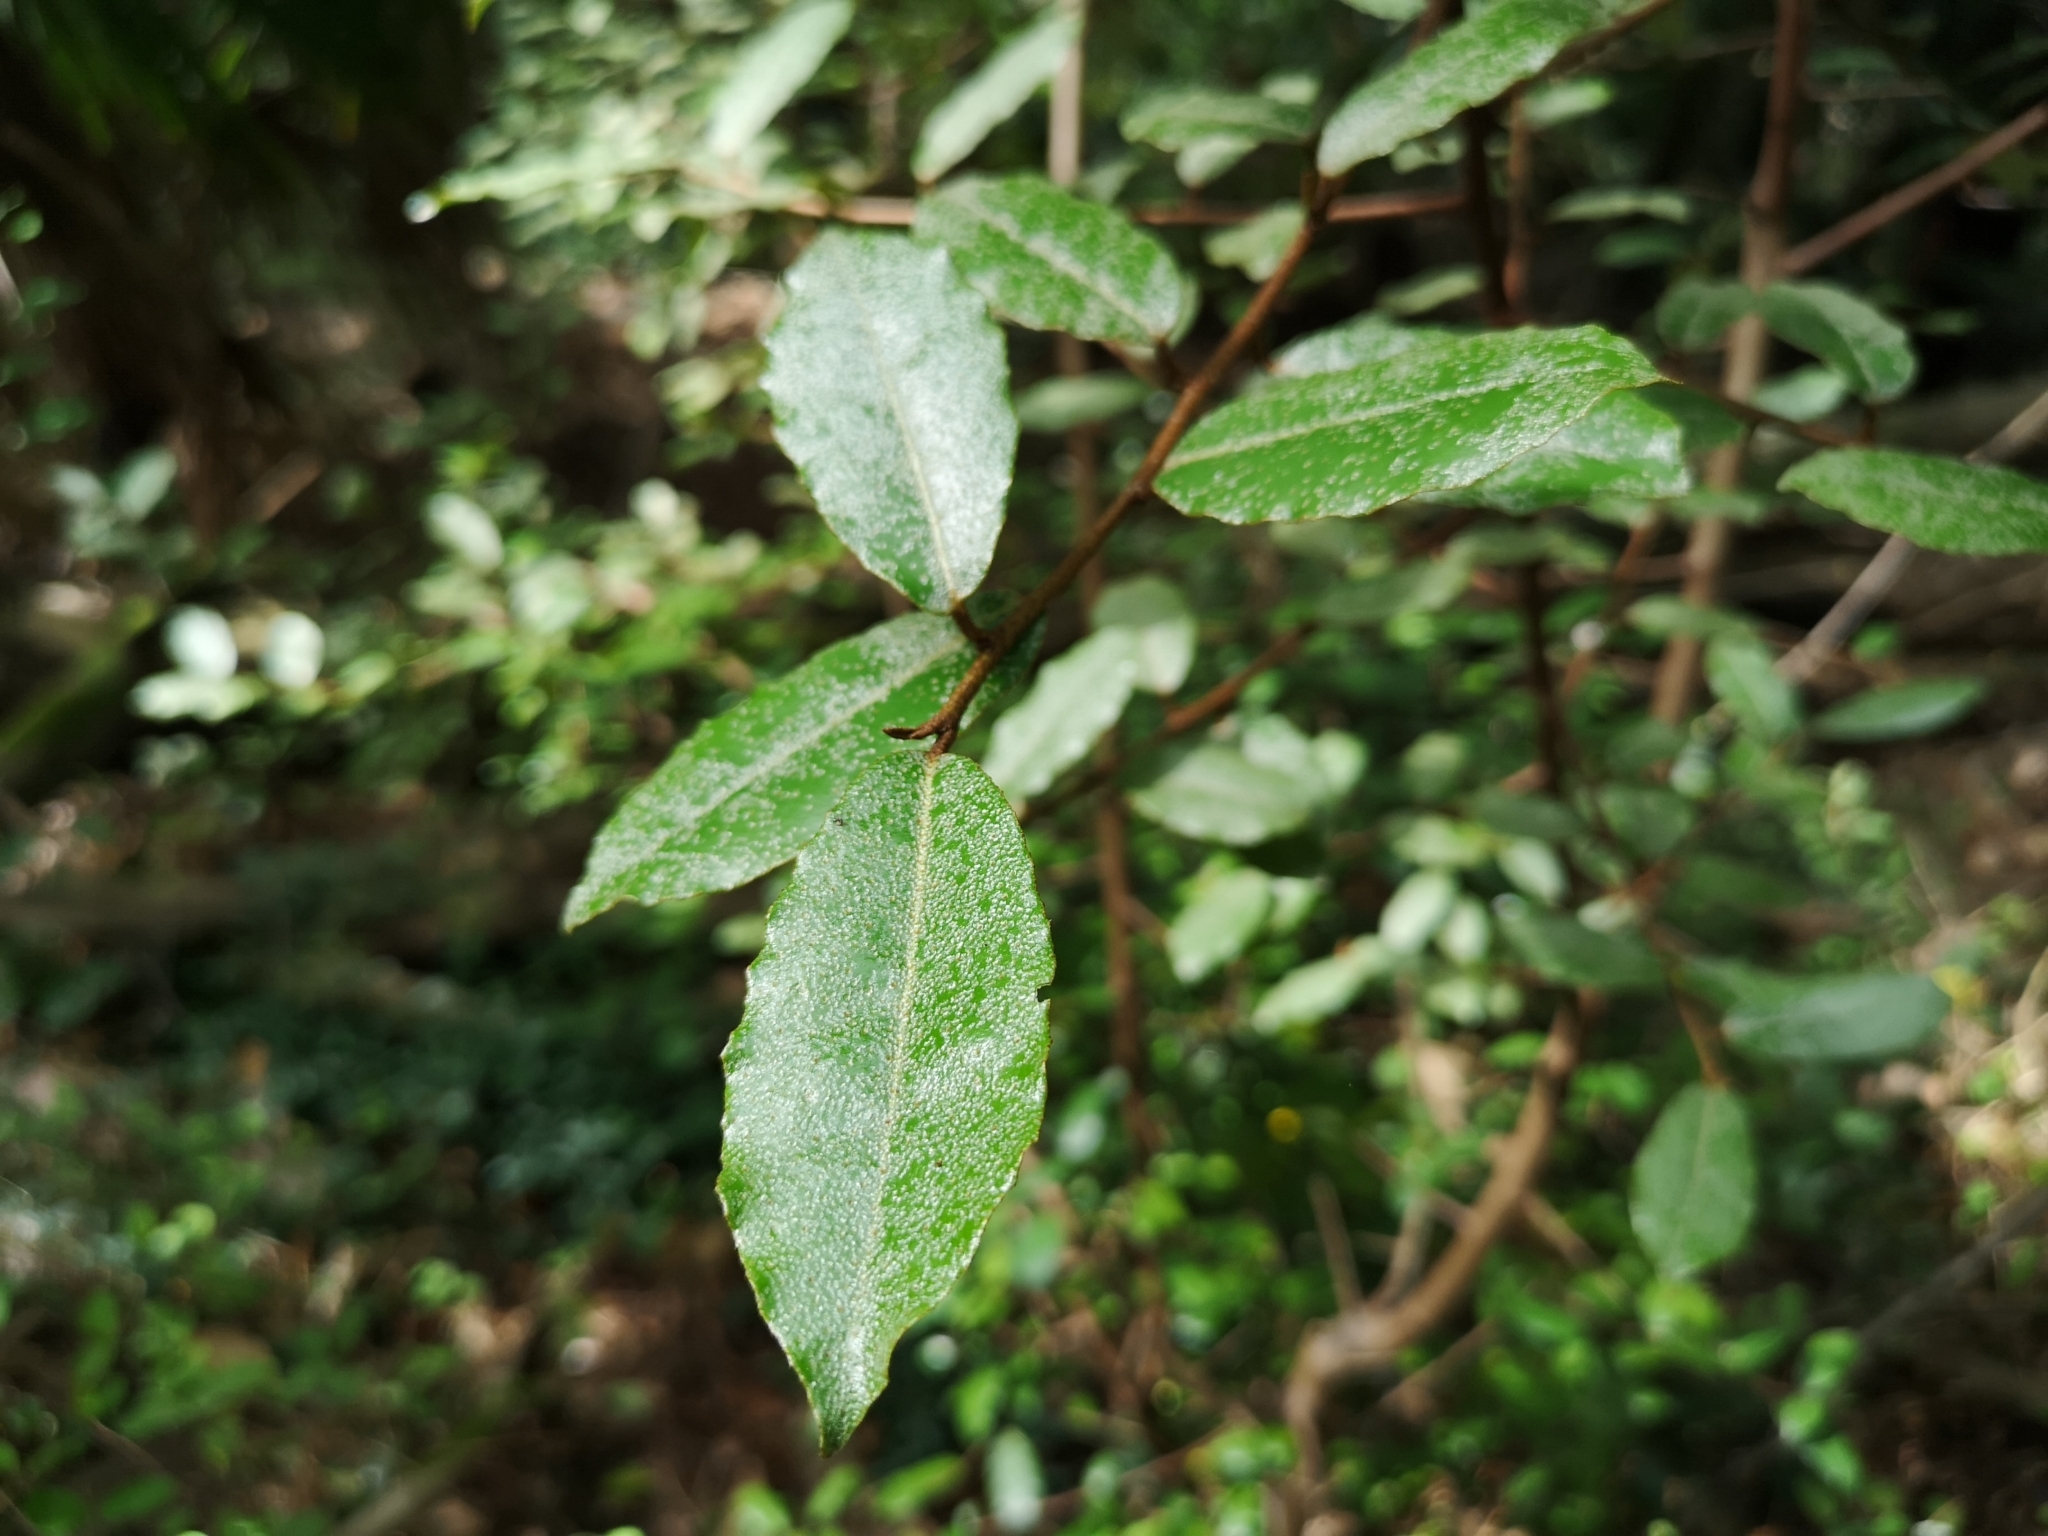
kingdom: Plantae
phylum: Tracheophyta
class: Magnoliopsida
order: Rosales
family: Elaeagnaceae
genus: Elaeagnus
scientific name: Elaeagnus pungens
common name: Spiny oleaster
